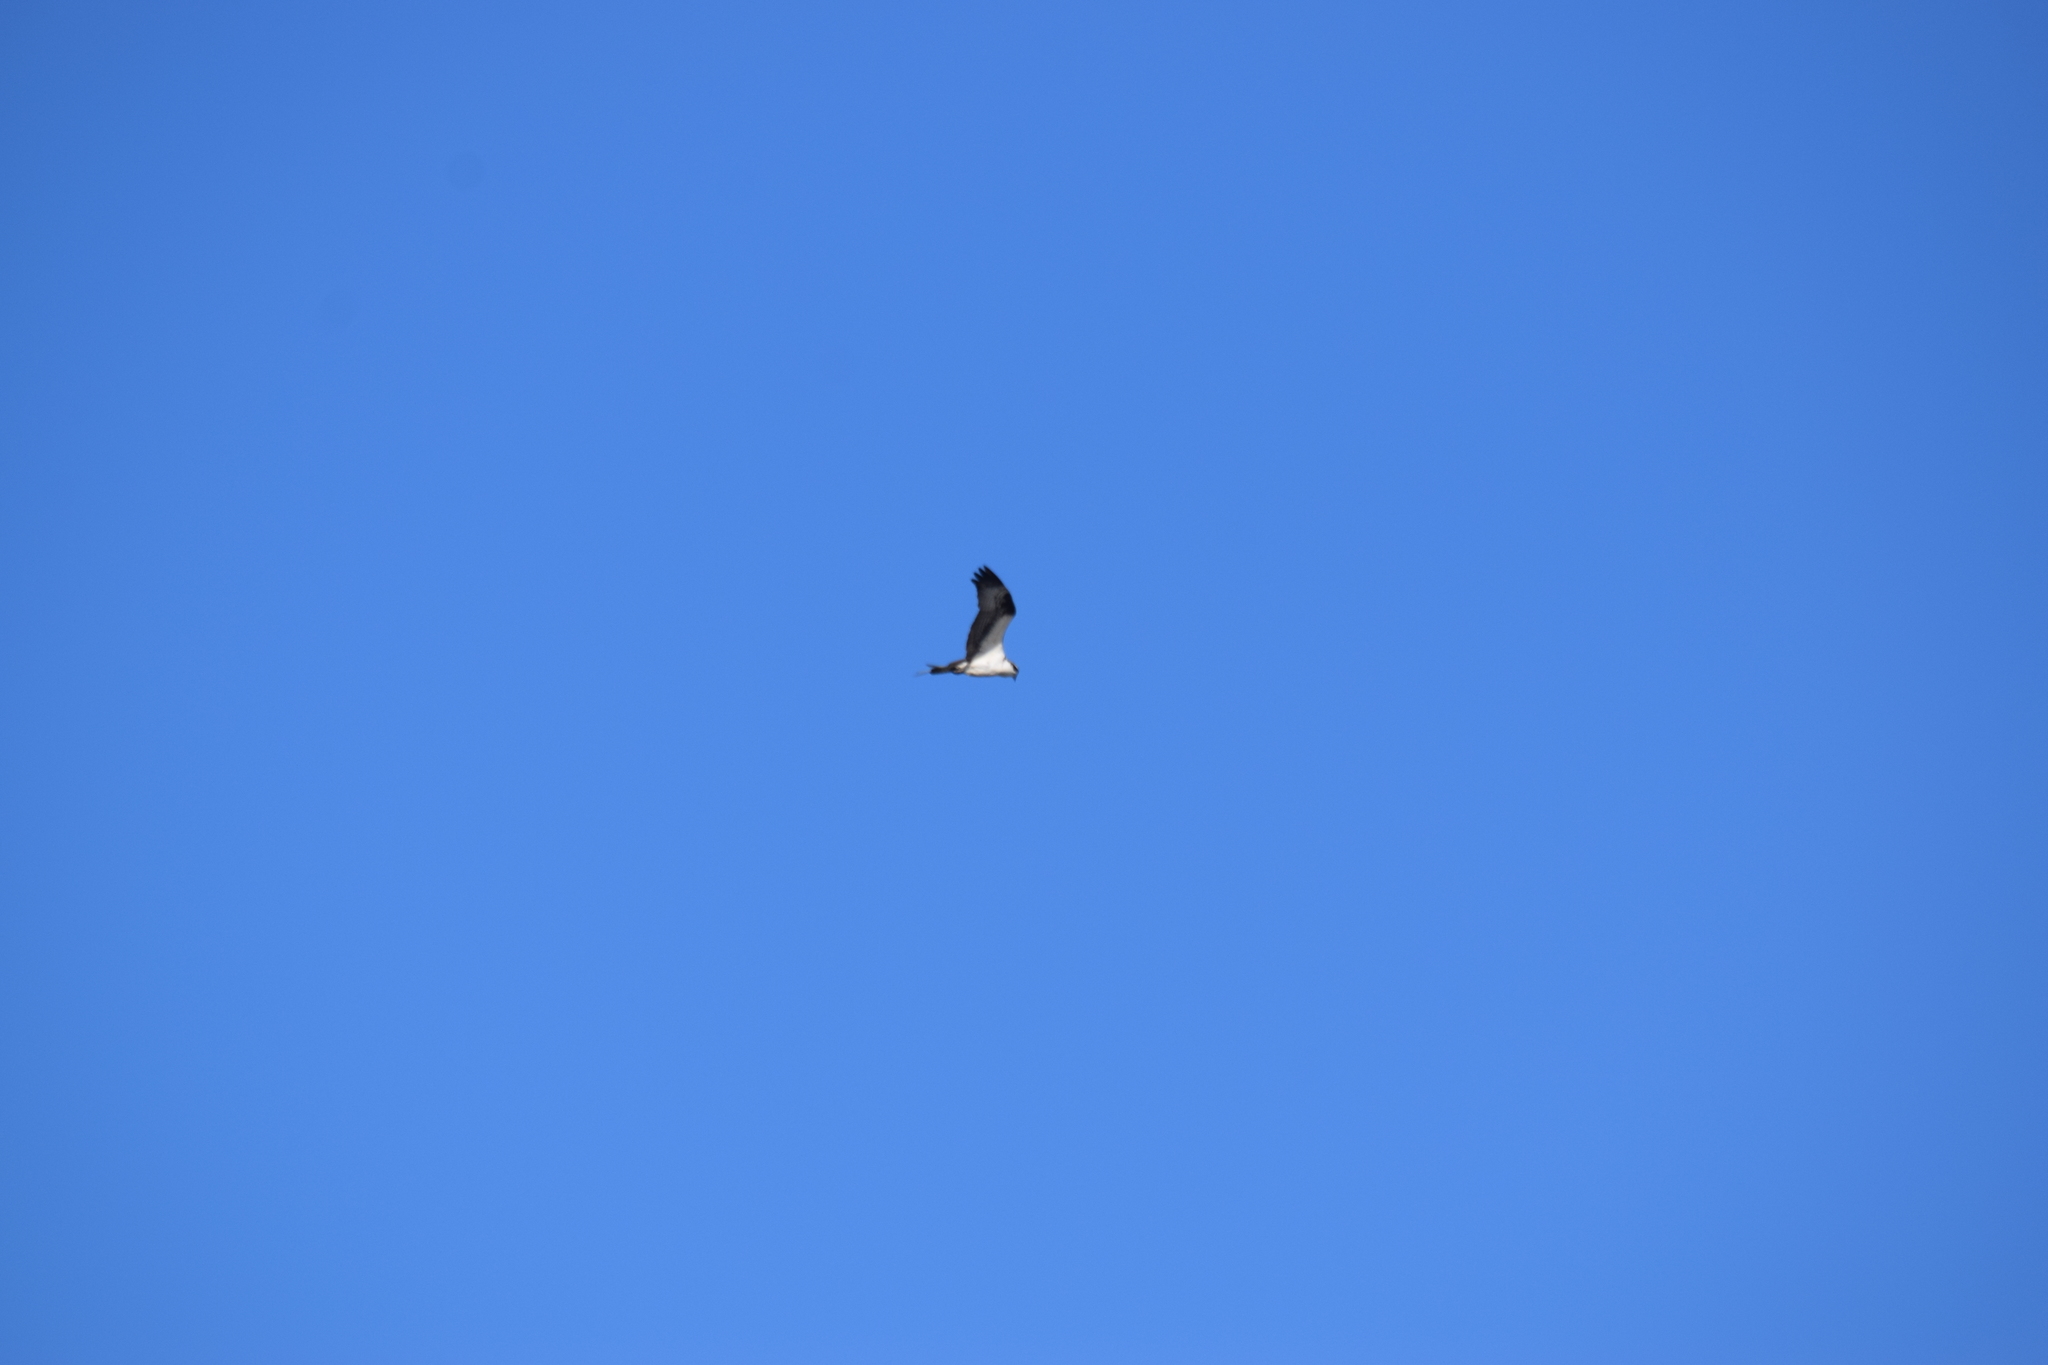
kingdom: Animalia
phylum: Chordata
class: Aves
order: Accipitriformes
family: Pandionidae
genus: Pandion
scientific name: Pandion haliaetus
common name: Osprey
